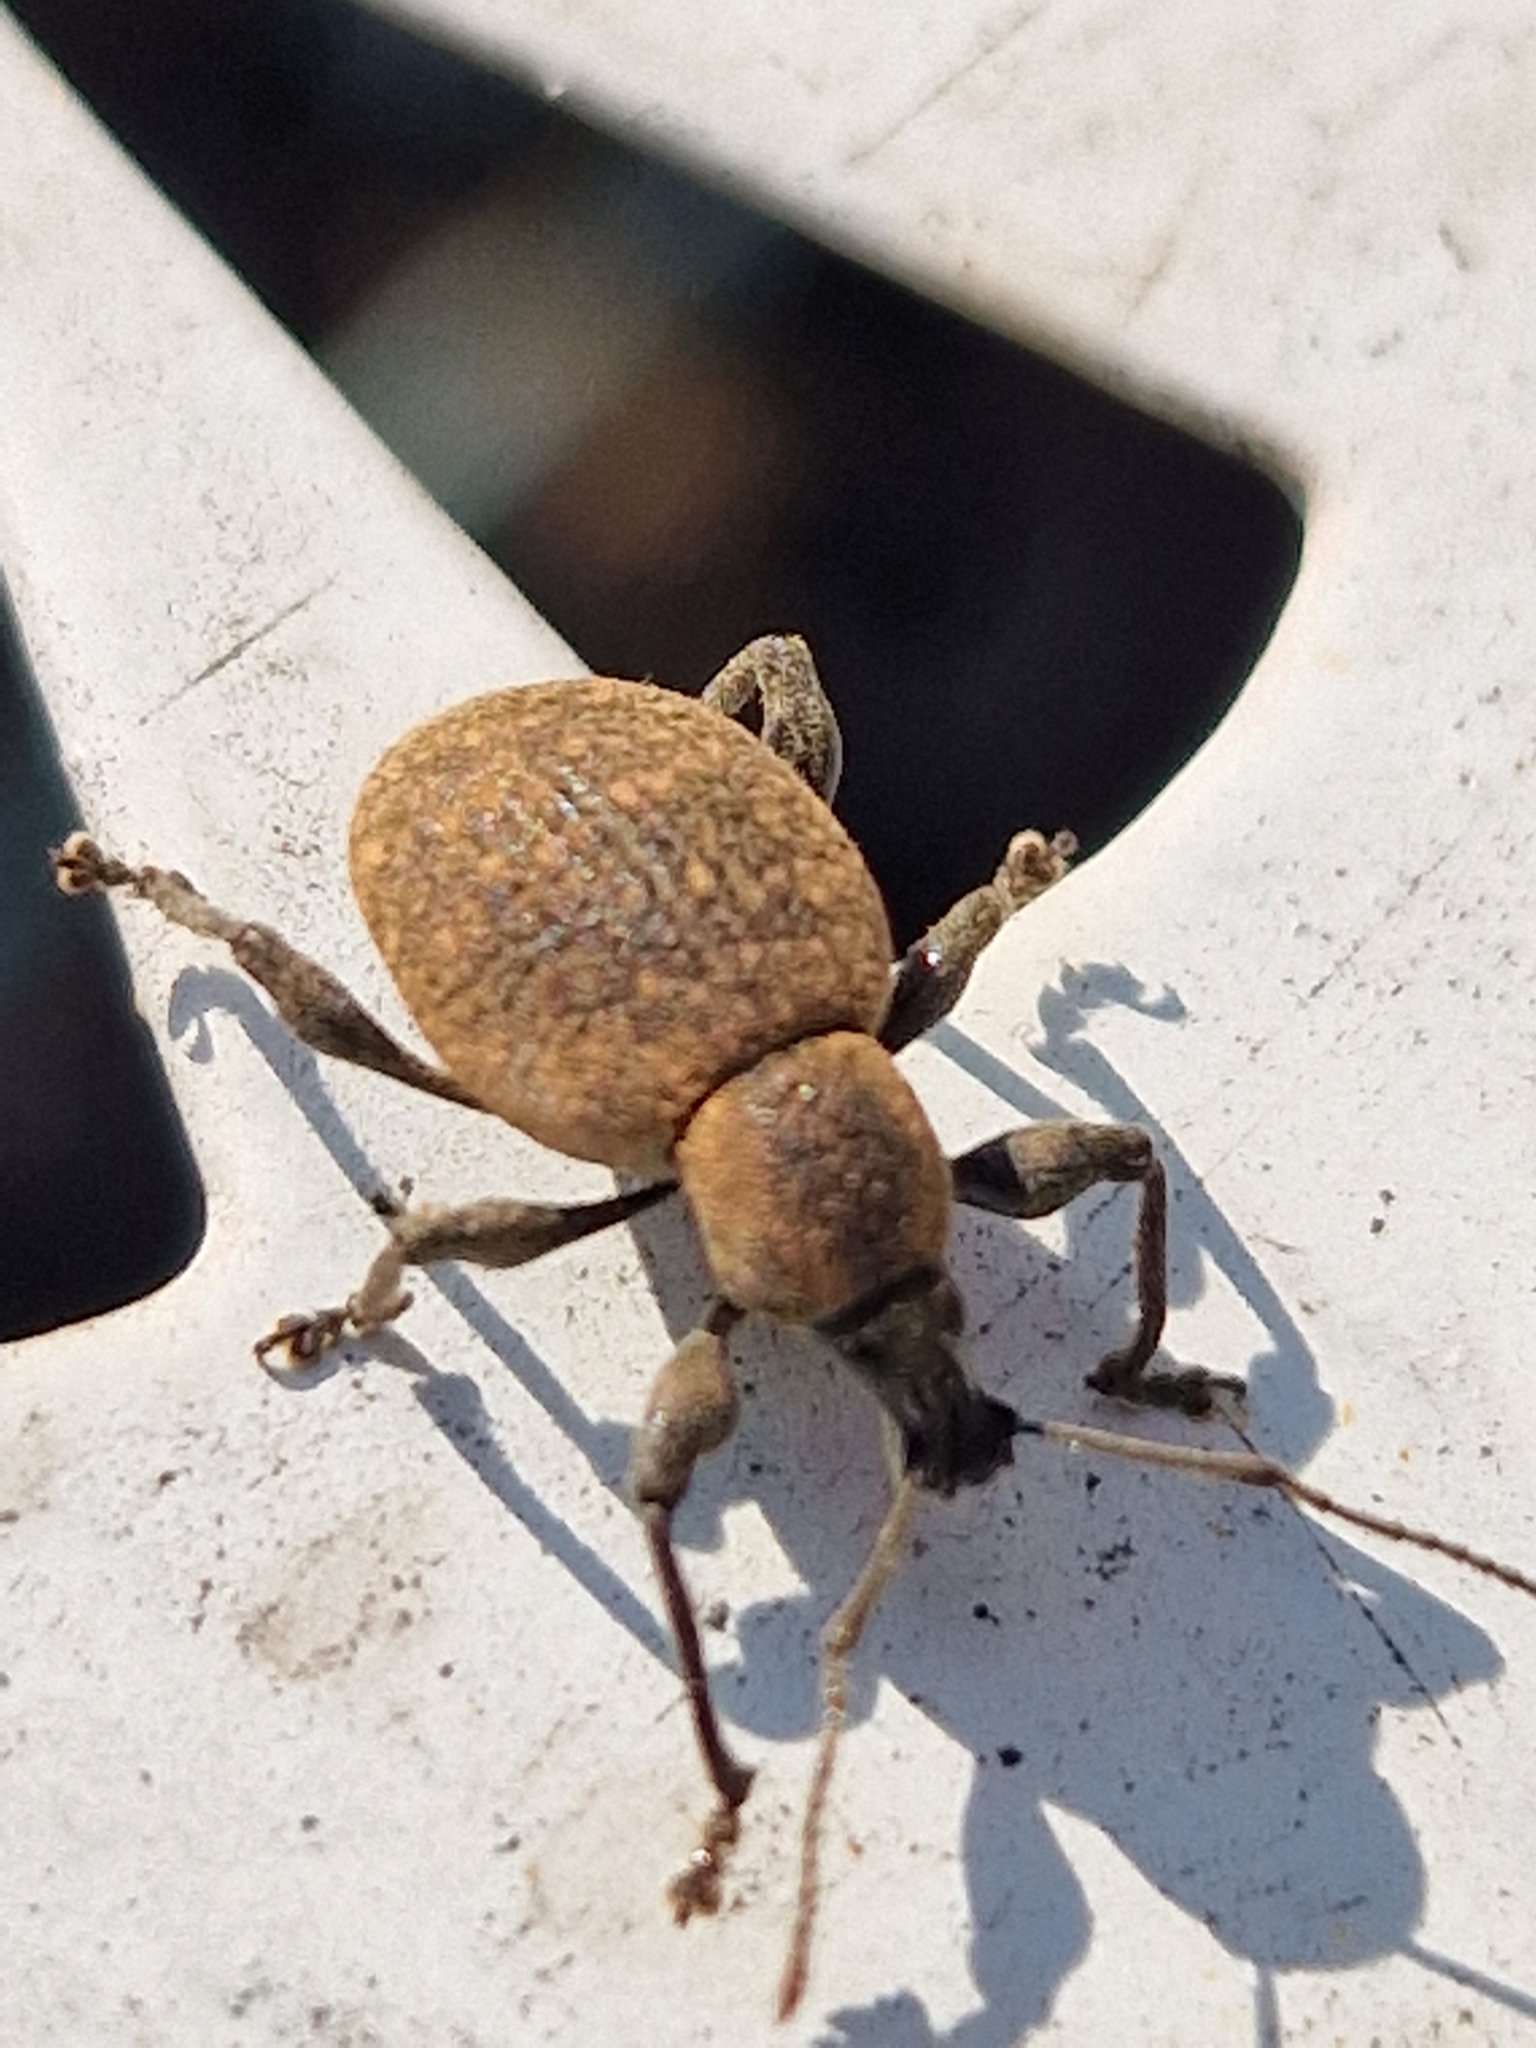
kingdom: Animalia
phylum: Arthropoda
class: Insecta
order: Coleoptera
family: Curculionidae
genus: Otiorhynchus
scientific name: Otiorhynchus armadillo
